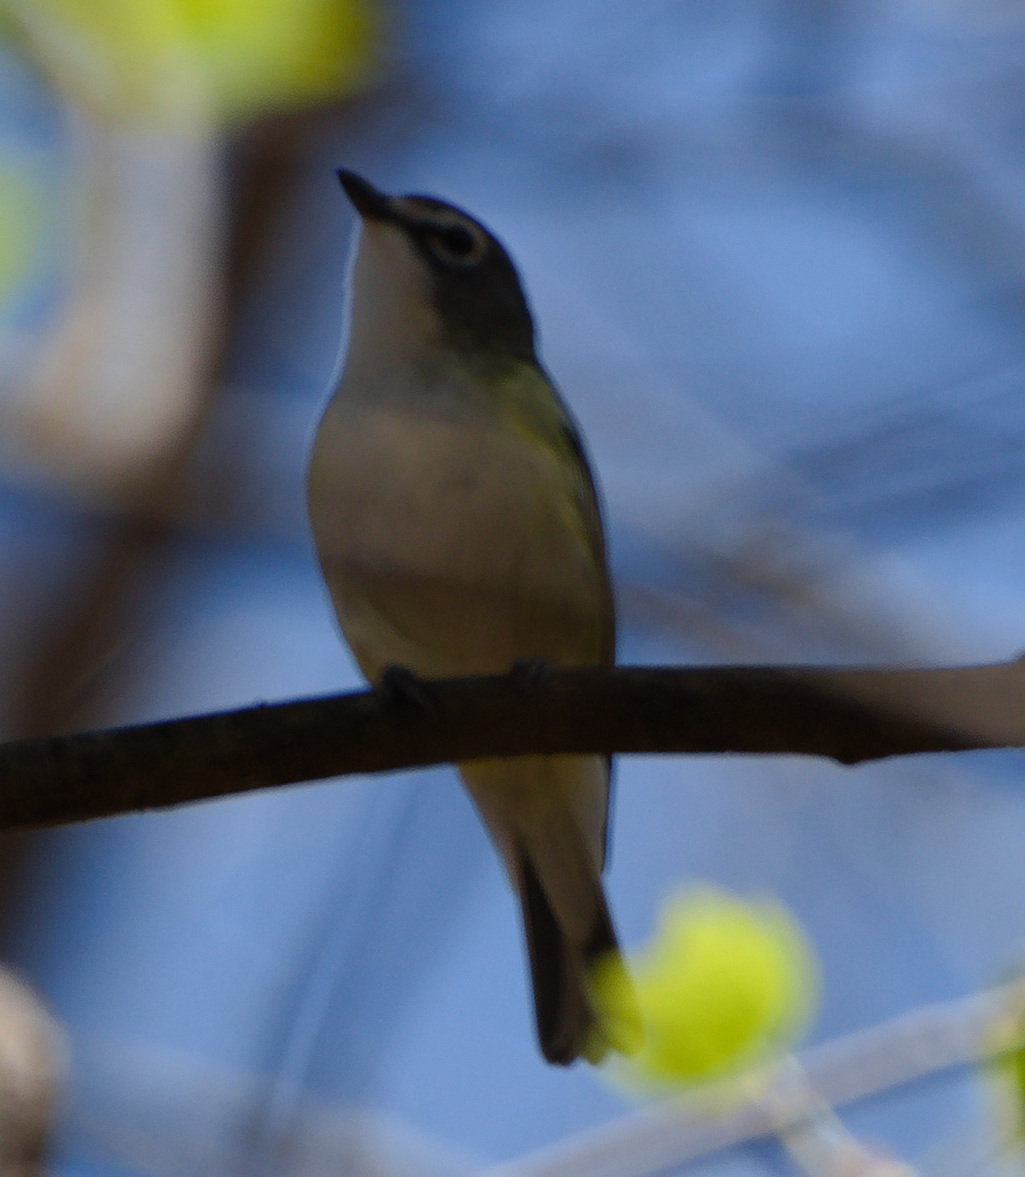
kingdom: Animalia
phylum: Chordata
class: Aves
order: Passeriformes
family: Vireonidae
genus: Vireo
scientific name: Vireo solitarius
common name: Blue-headed vireo
